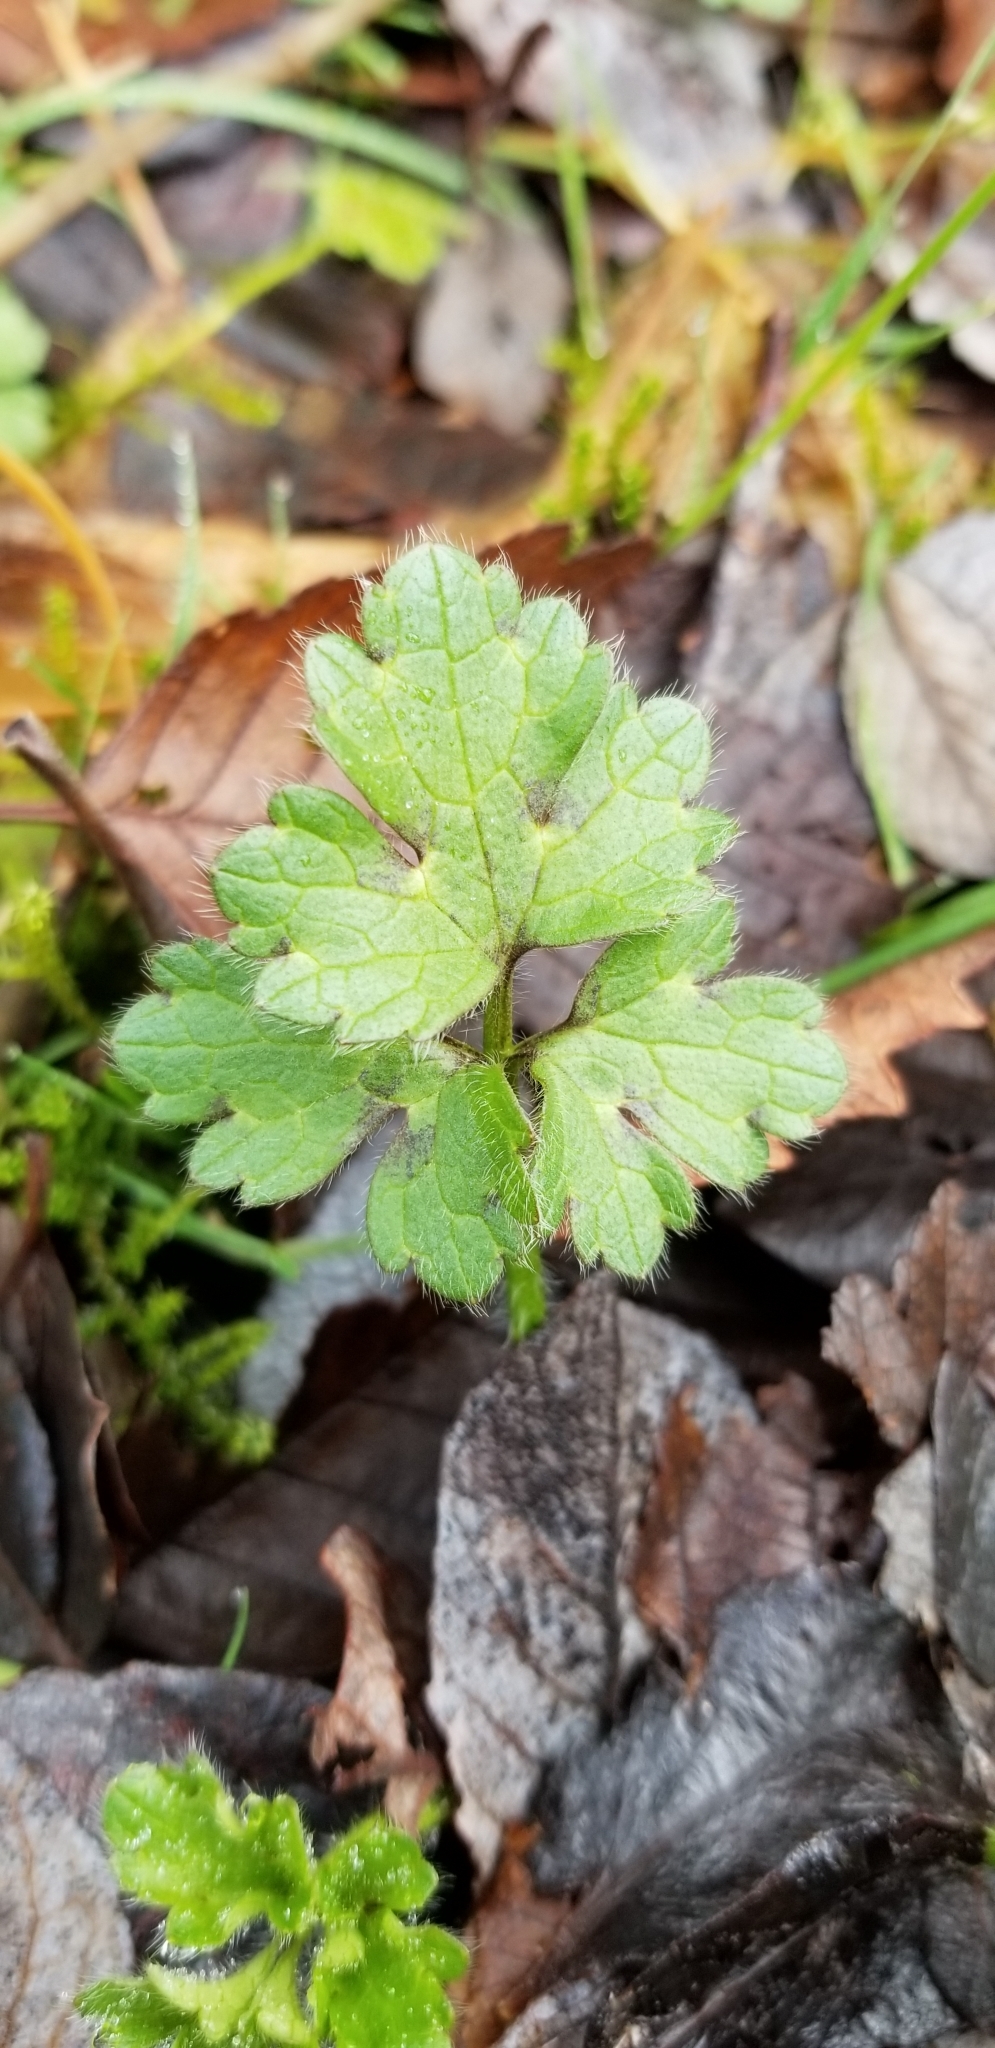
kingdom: Plantae
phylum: Tracheophyta
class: Magnoliopsida
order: Ranunculales
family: Ranunculaceae
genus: Ranunculus
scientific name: Ranunculus repens
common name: Creeping buttercup
